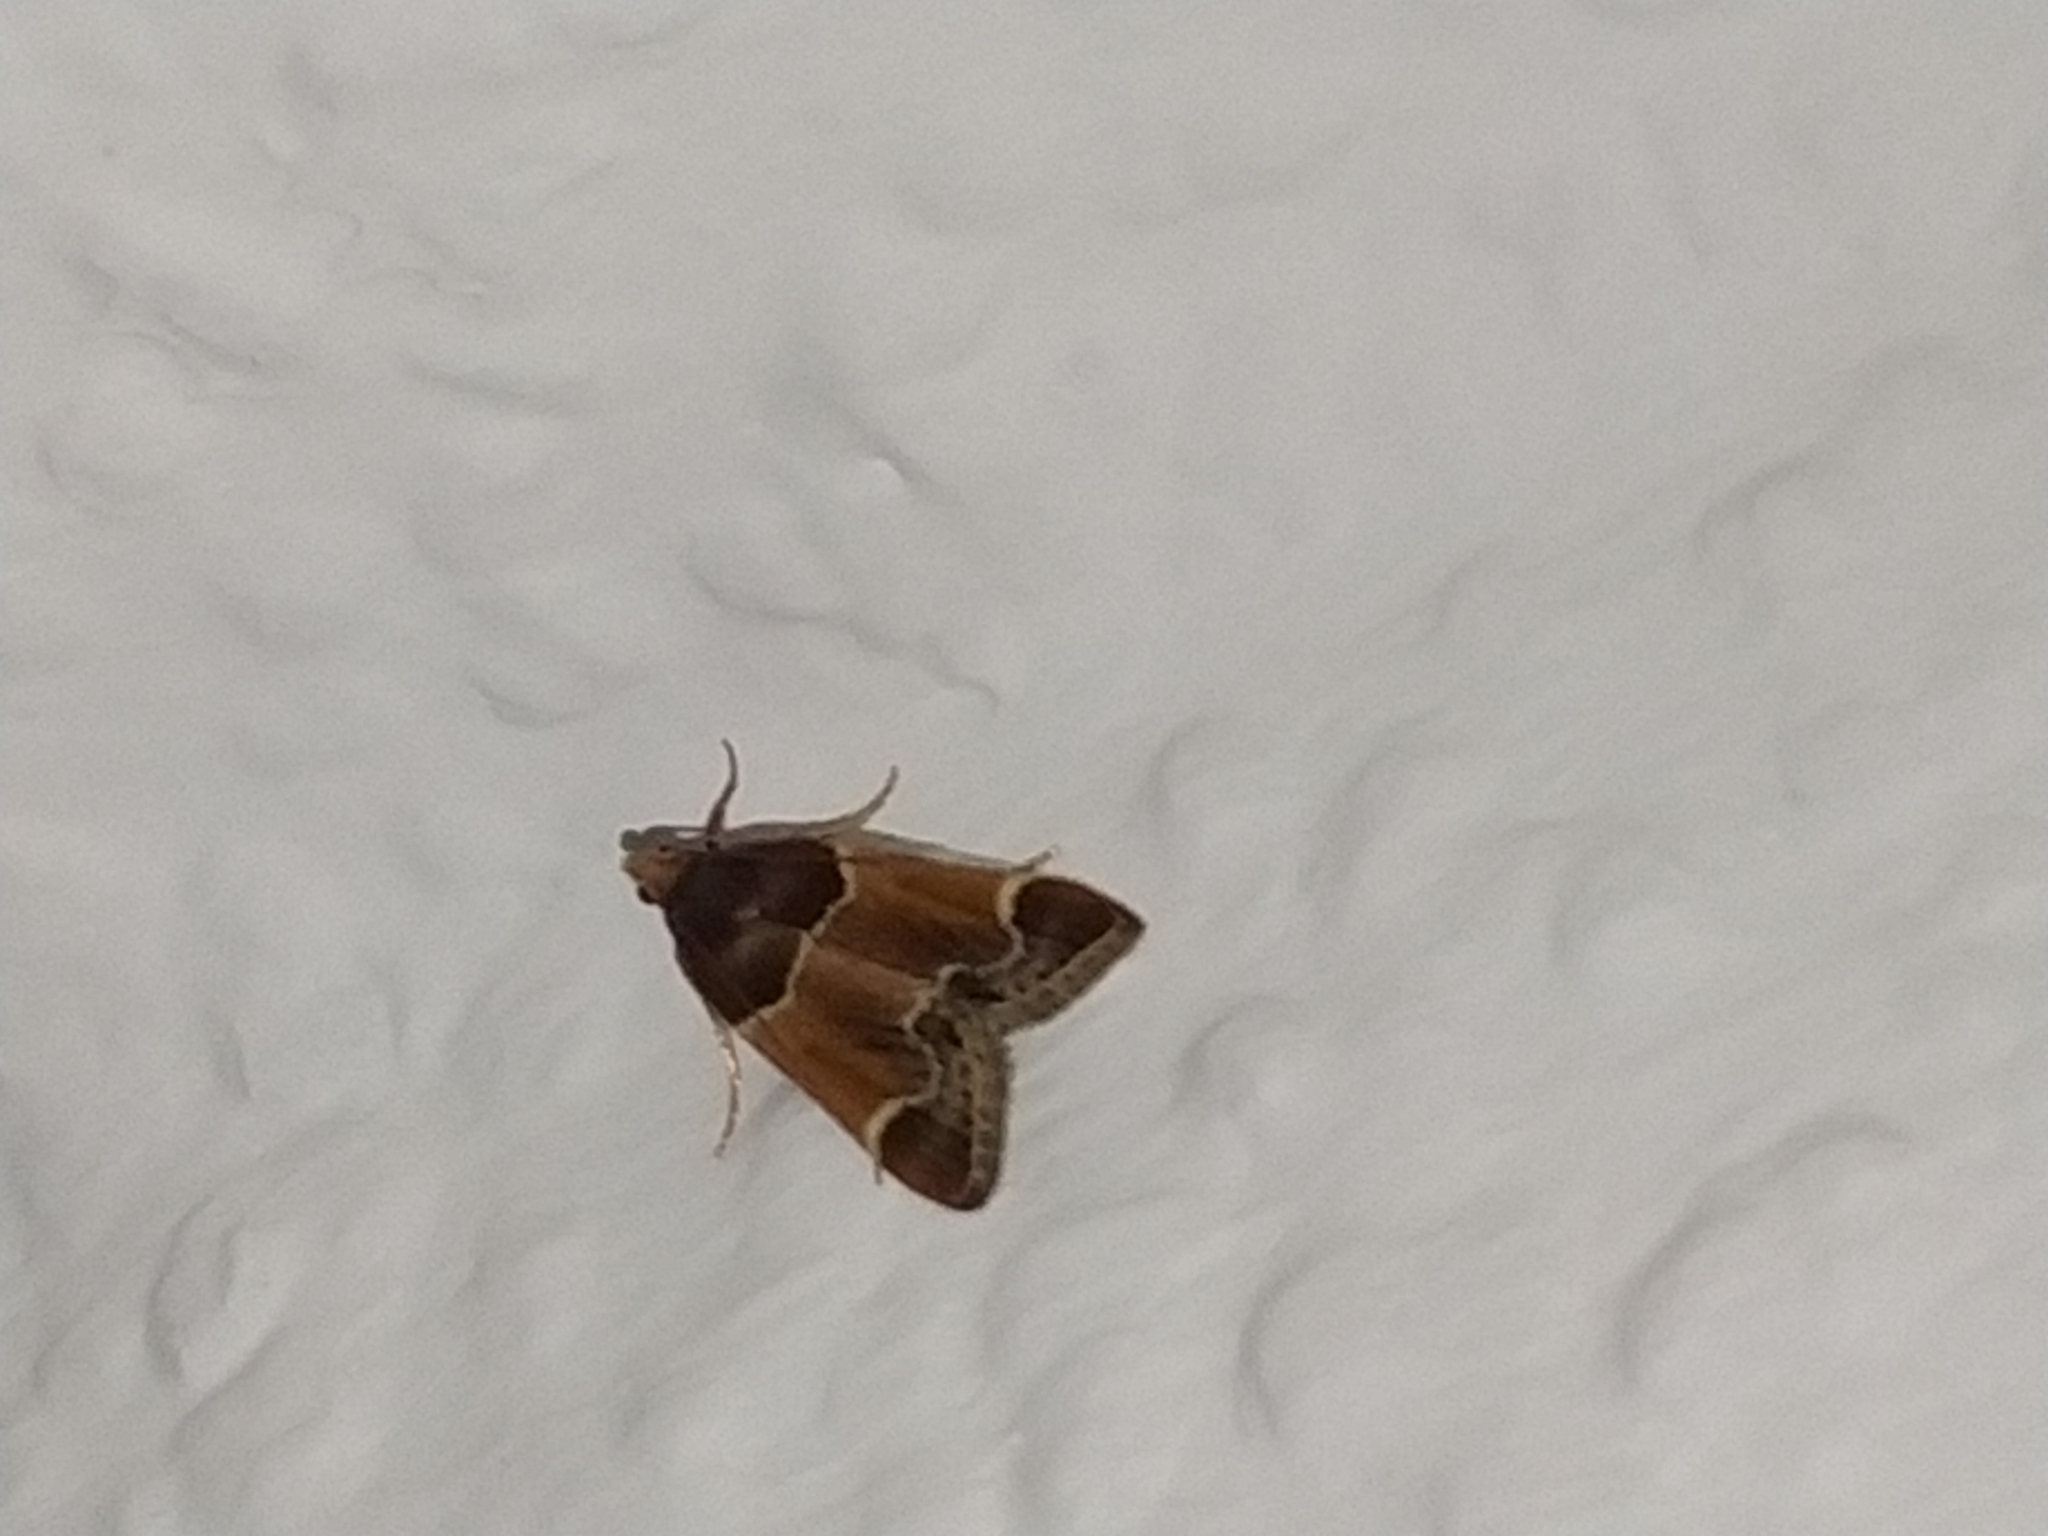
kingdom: Animalia
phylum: Arthropoda
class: Insecta
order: Lepidoptera
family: Pyralidae
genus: Pyralis
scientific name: Pyralis farinalis
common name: Meal moth
